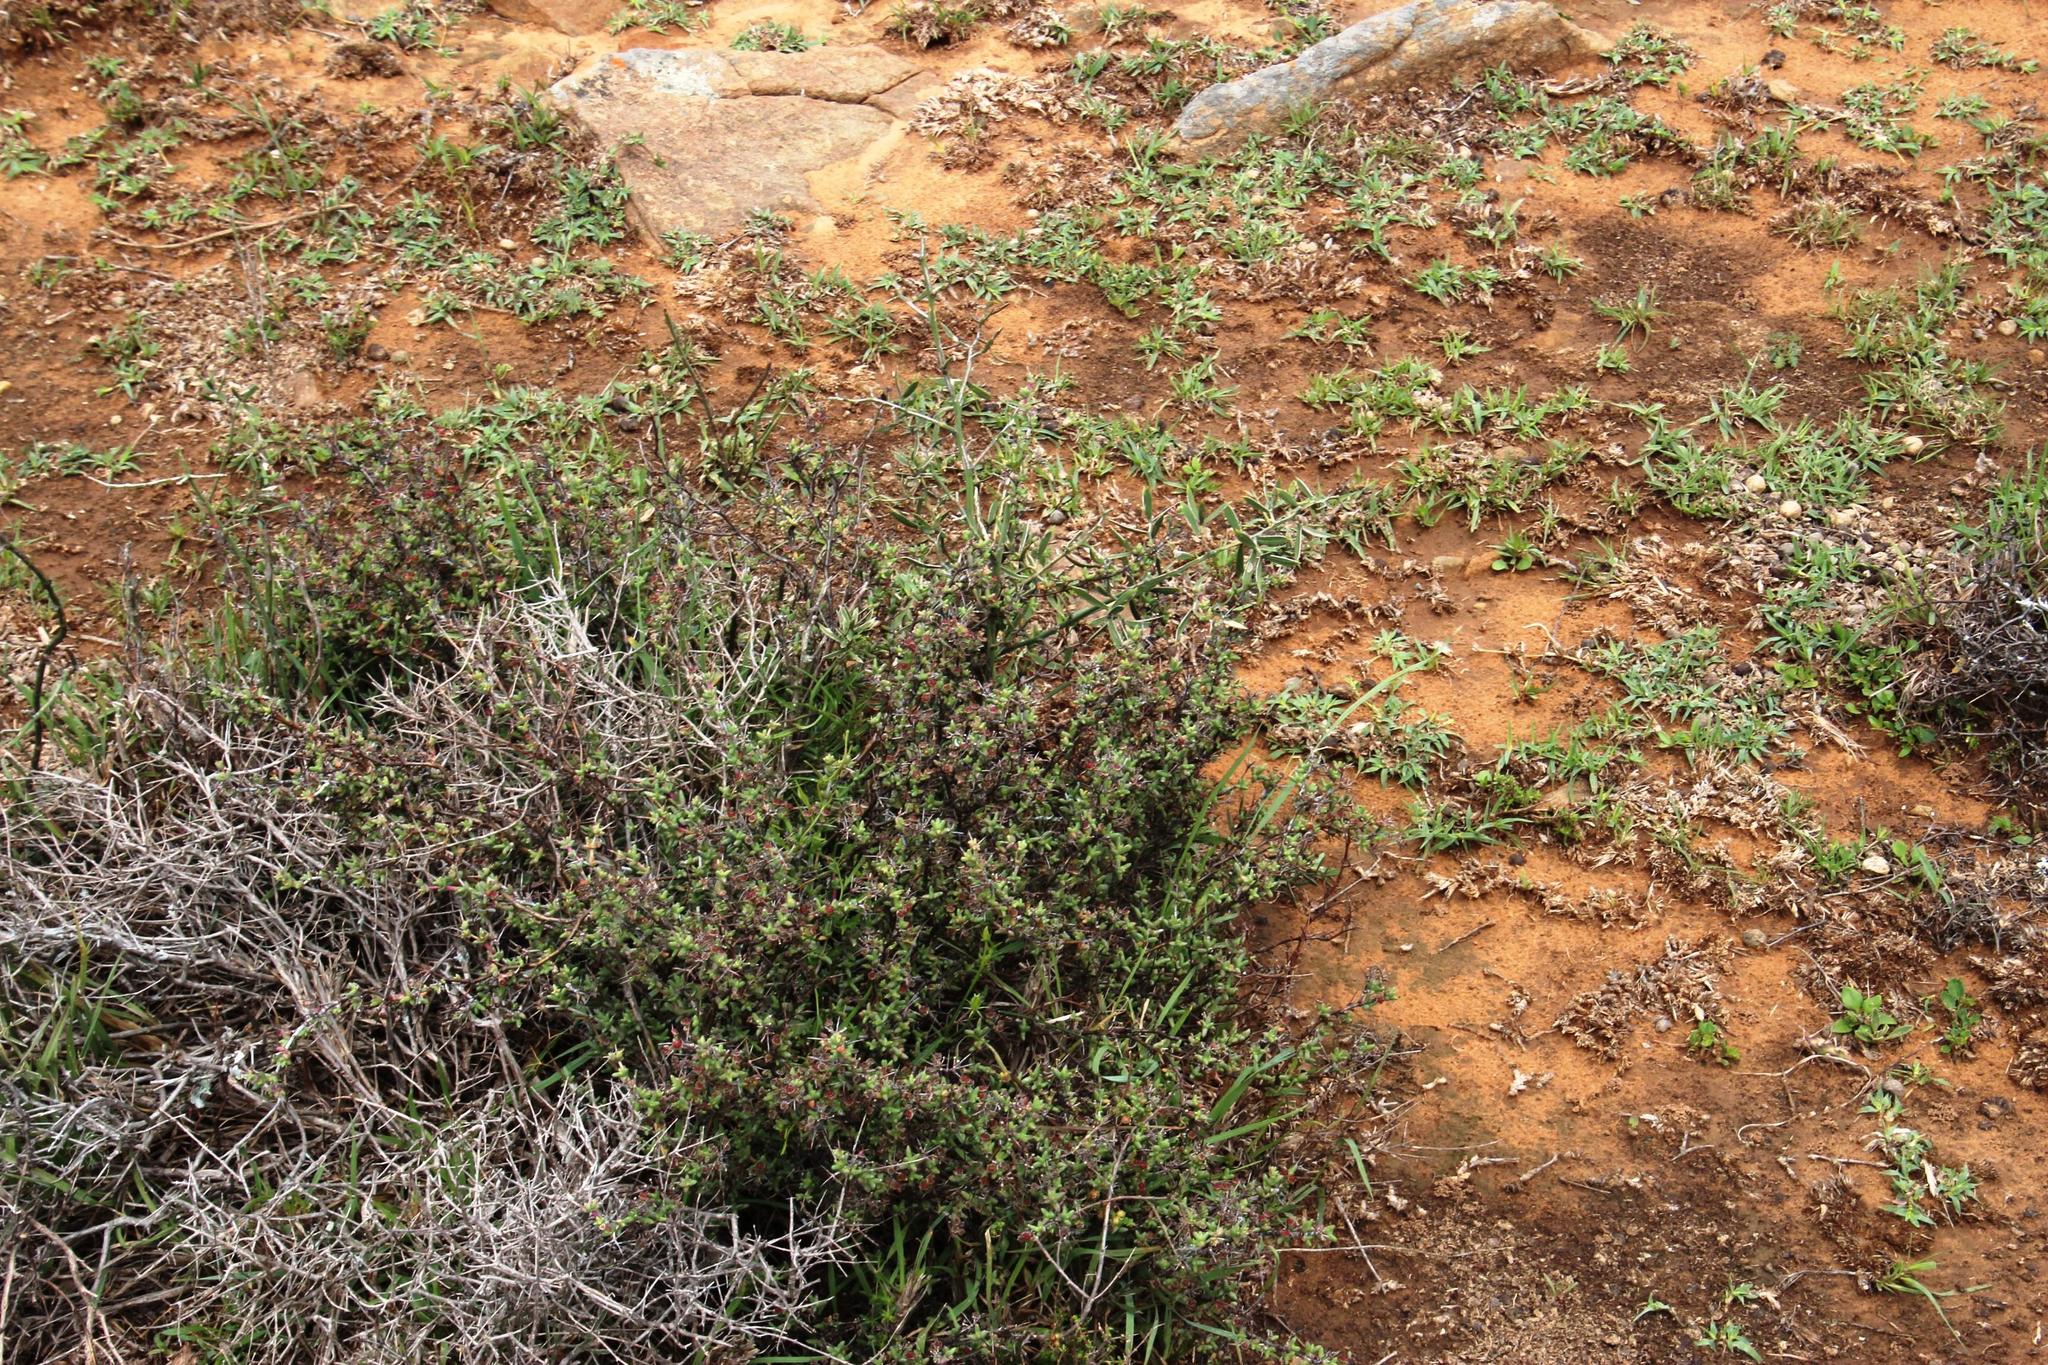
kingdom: Plantae
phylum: Tracheophyta
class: Liliopsida
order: Asparagales
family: Asparagaceae
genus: Asparagus
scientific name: Asparagus striatus
